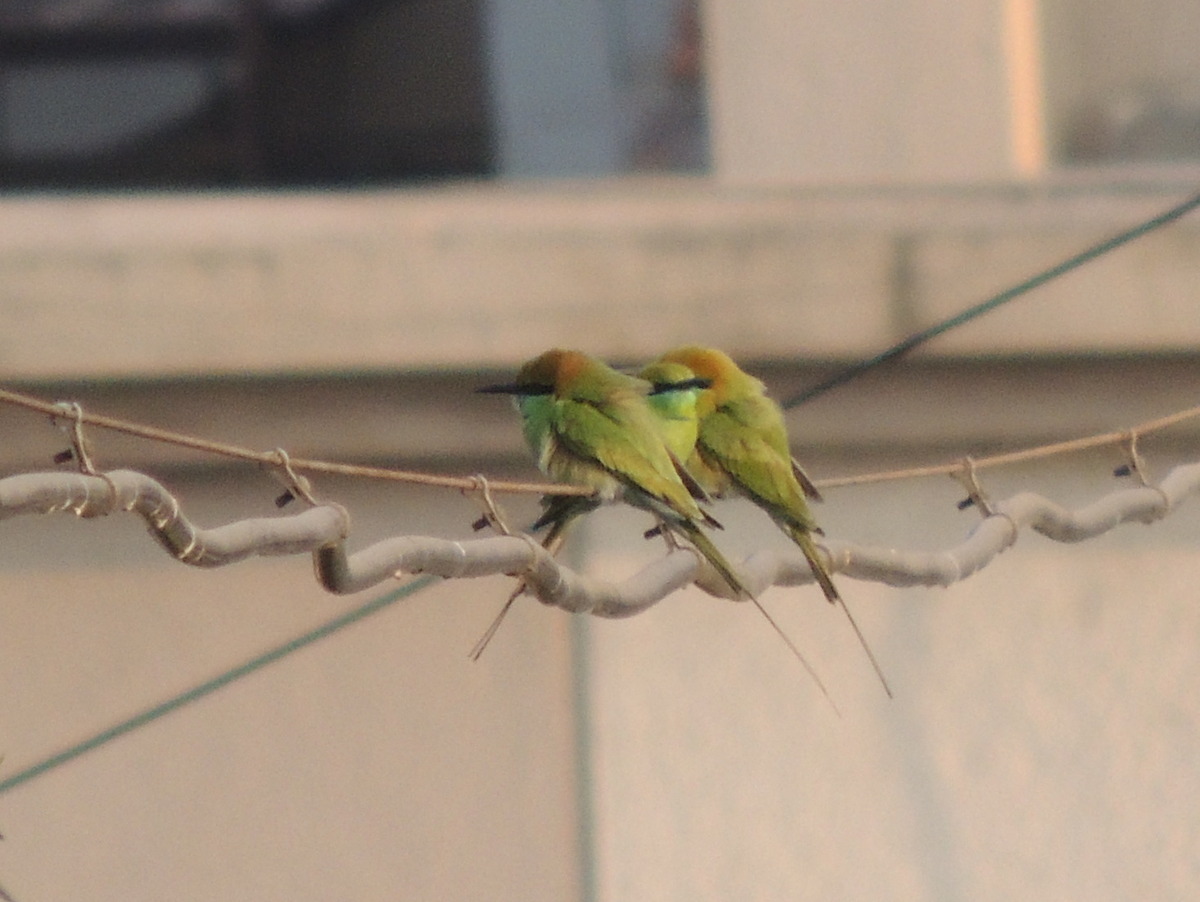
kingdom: Animalia
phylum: Chordata
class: Aves
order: Coraciiformes
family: Meropidae
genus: Merops
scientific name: Merops orientalis
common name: Green bee-eater
